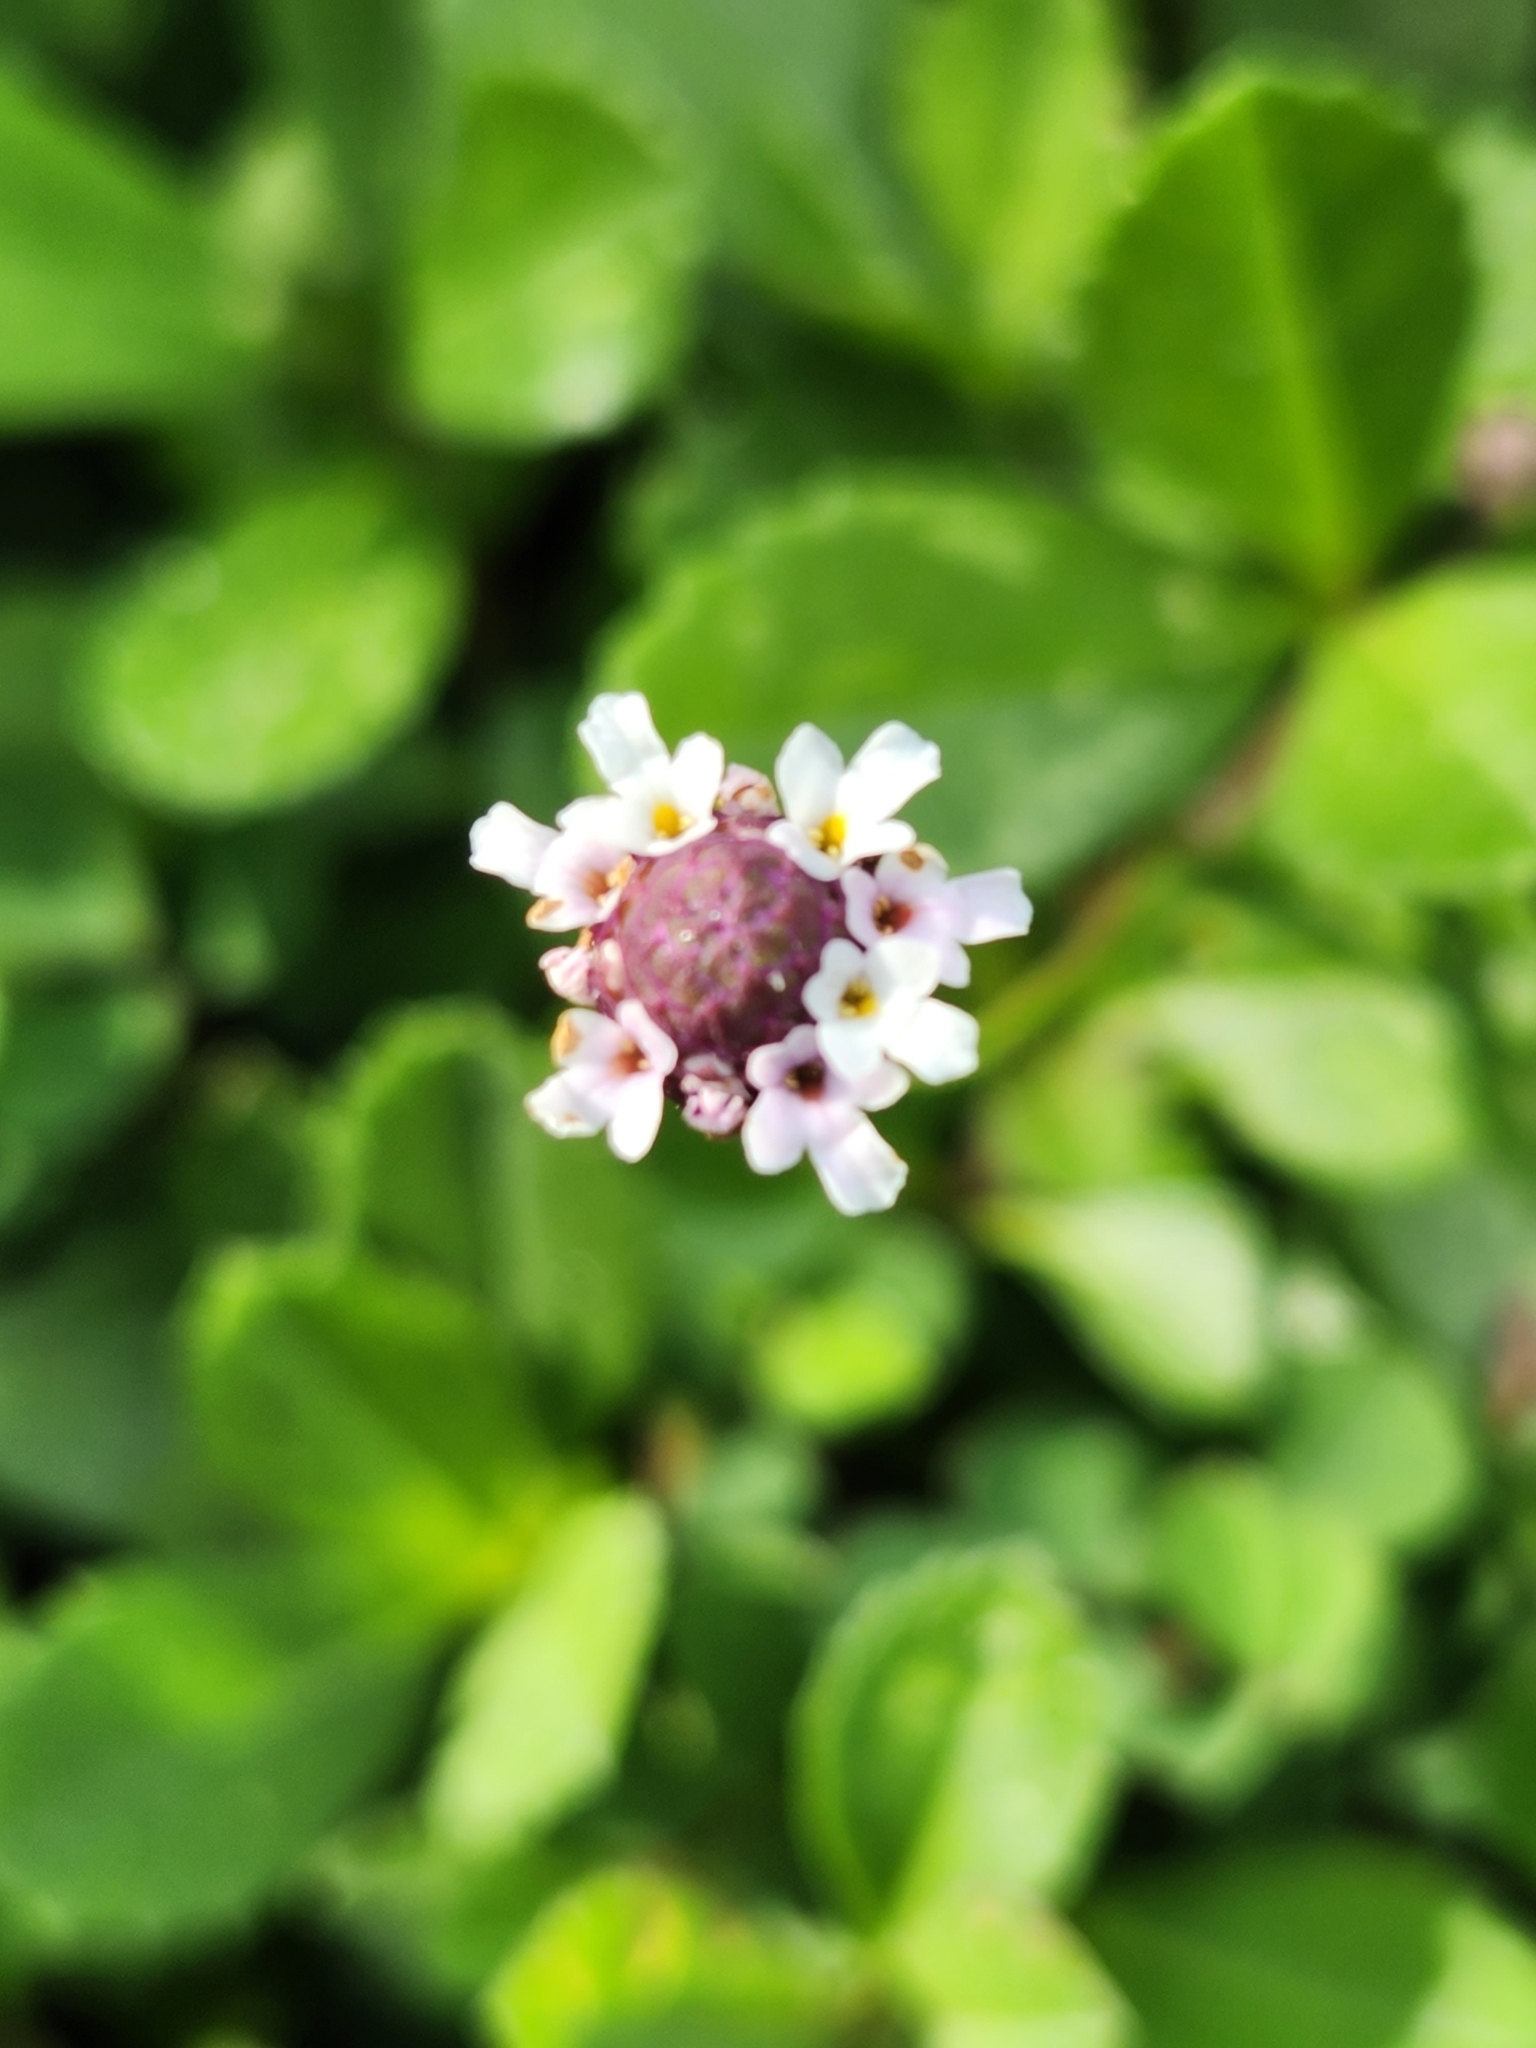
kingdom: Plantae
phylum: Tracheophyta
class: Magnoliopsida
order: Lamiales
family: Verbenaceae
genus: Phyla
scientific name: Phyla nodiflora
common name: Frogfruit
